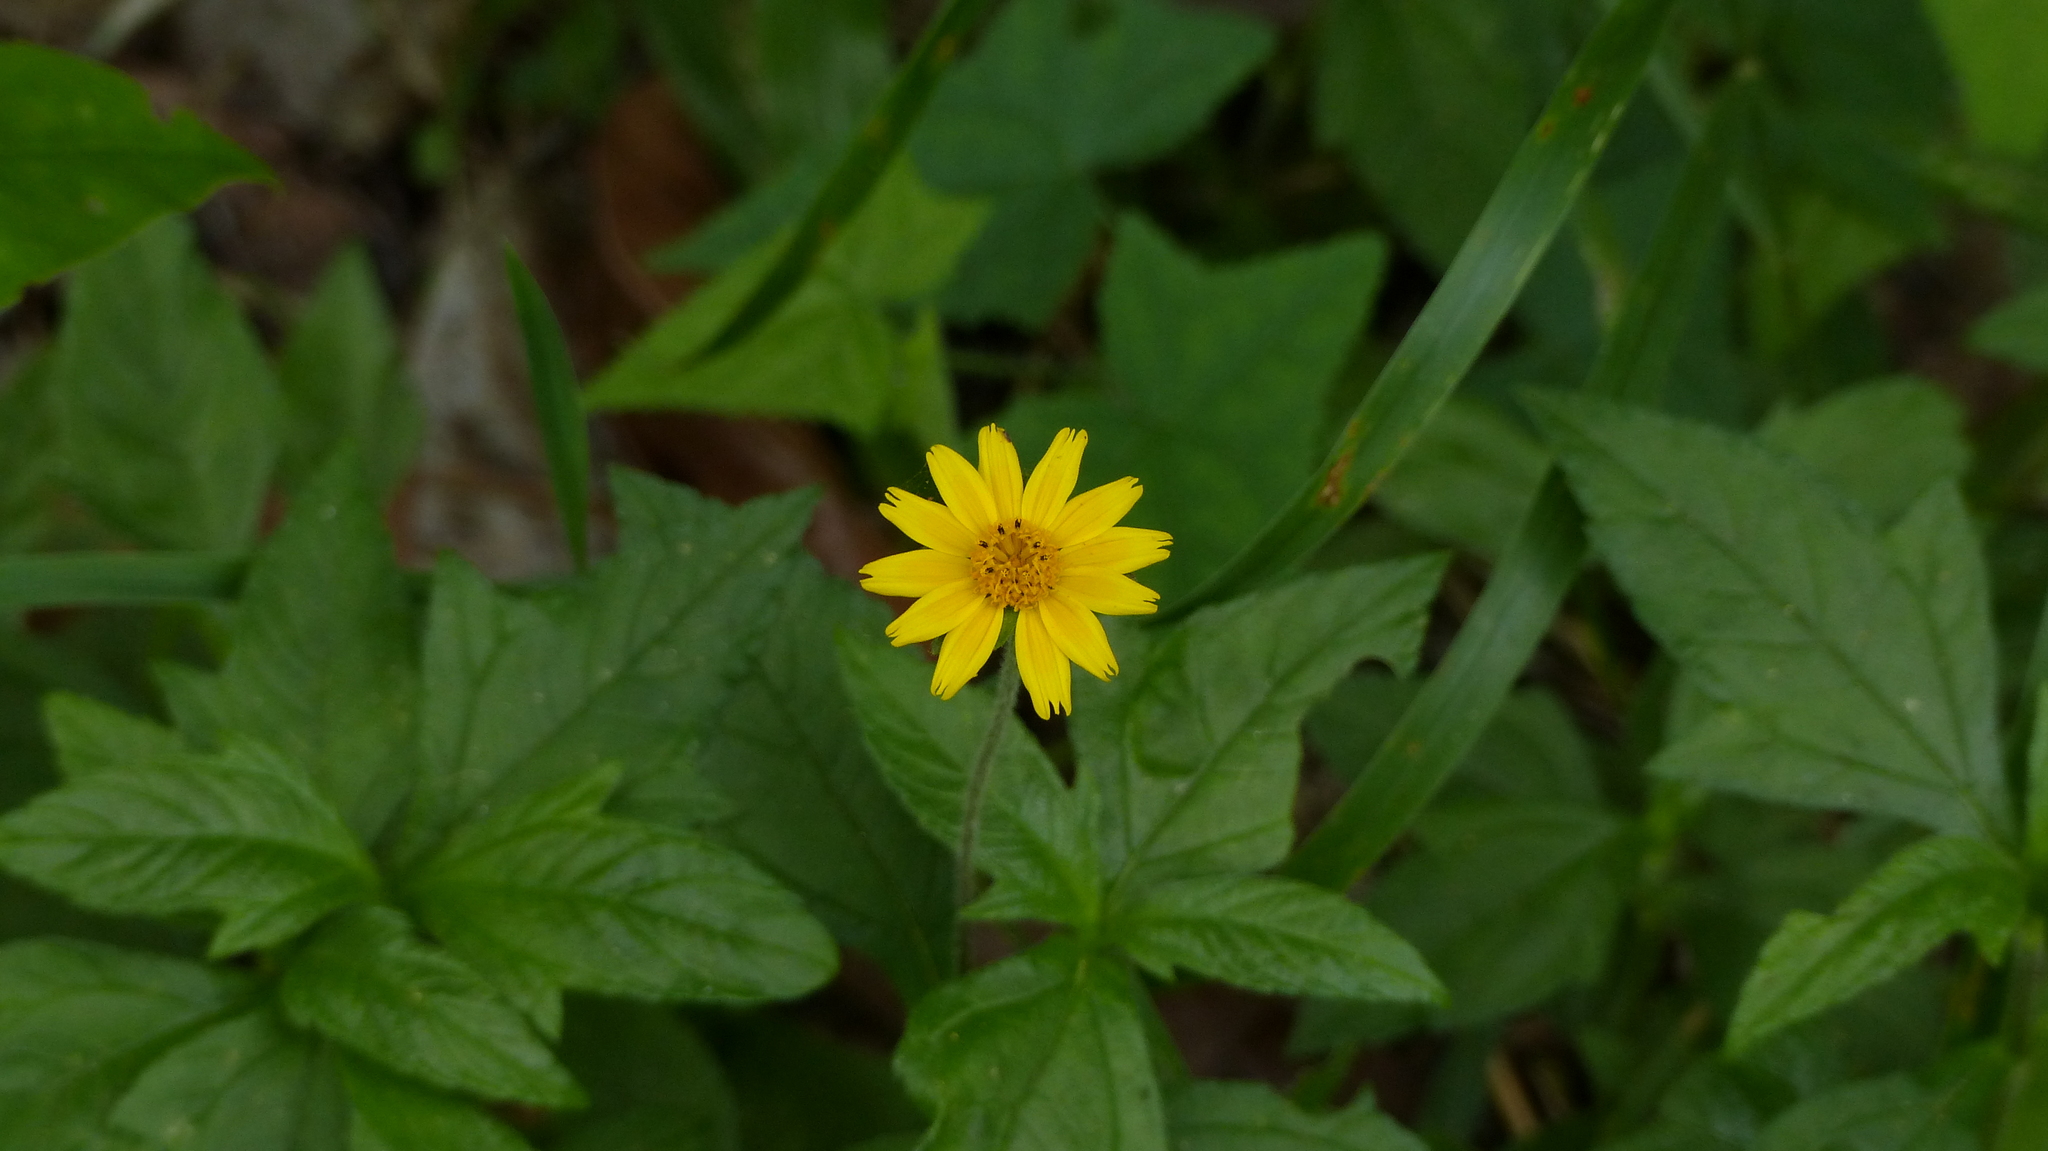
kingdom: Plantae
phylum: Tracheophyta
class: Magnoliopsida
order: Asterales
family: Asteraceae
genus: Sphagneticola
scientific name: Sphagneticola trilobata
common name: Bay biscayne creeping-oxeye
